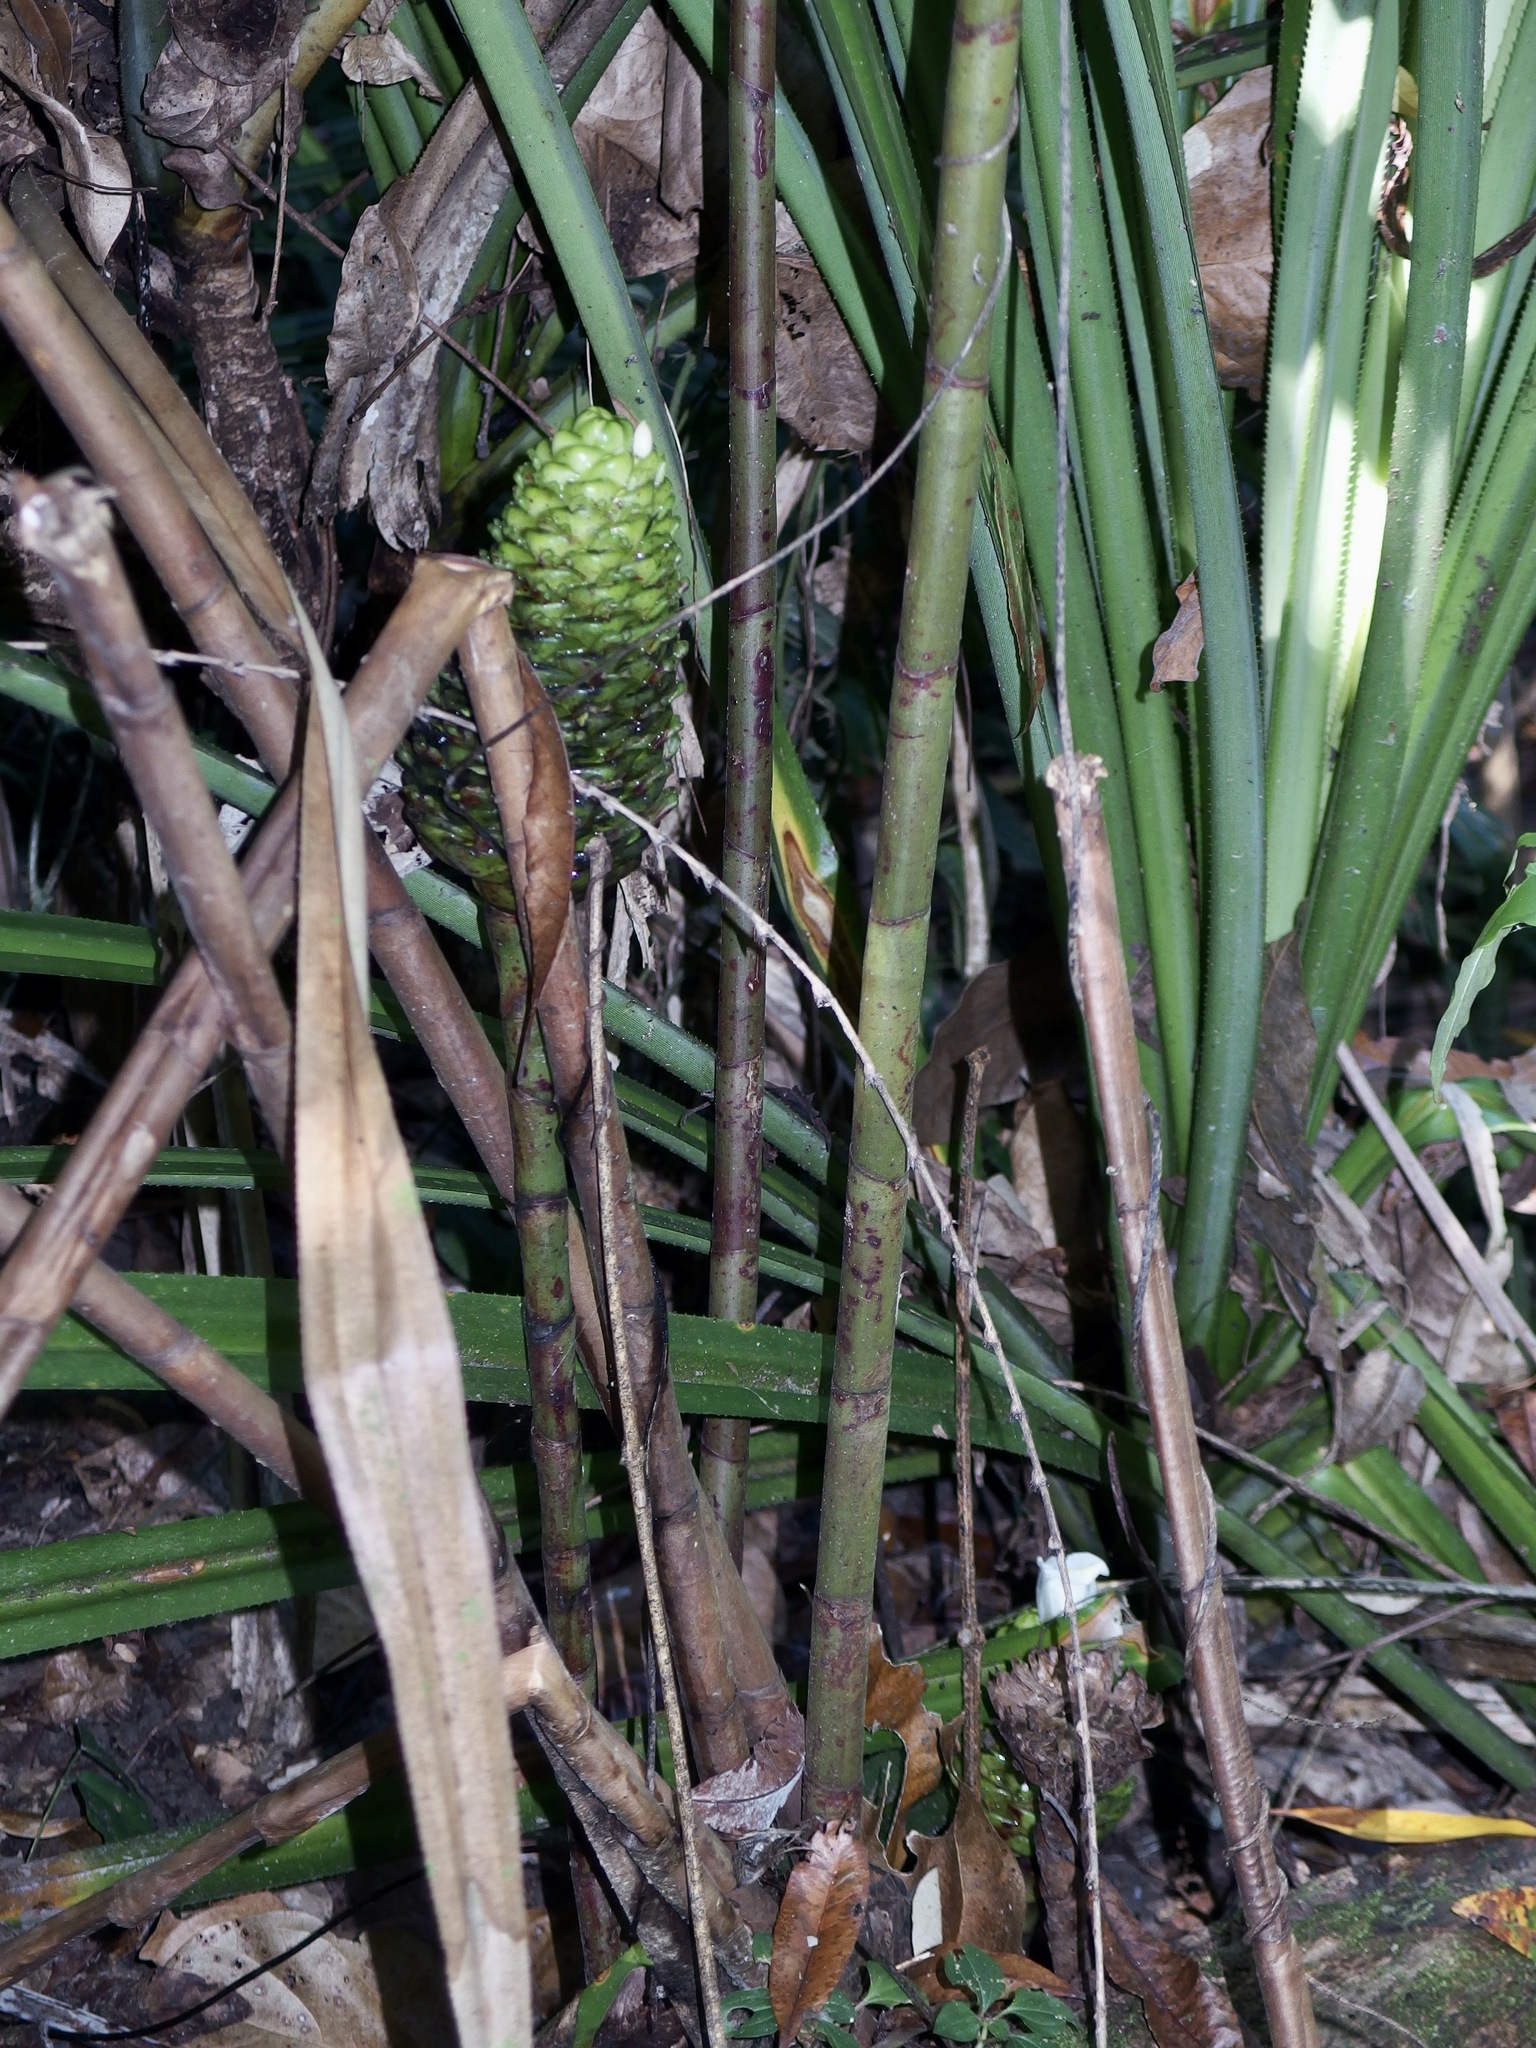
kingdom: Plantae
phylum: Tracheophyta
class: Liliopsida
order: Zingiberales
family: Zingiberaceae
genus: Zingiber
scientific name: Zingiber spectabile
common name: Beehive ginger
